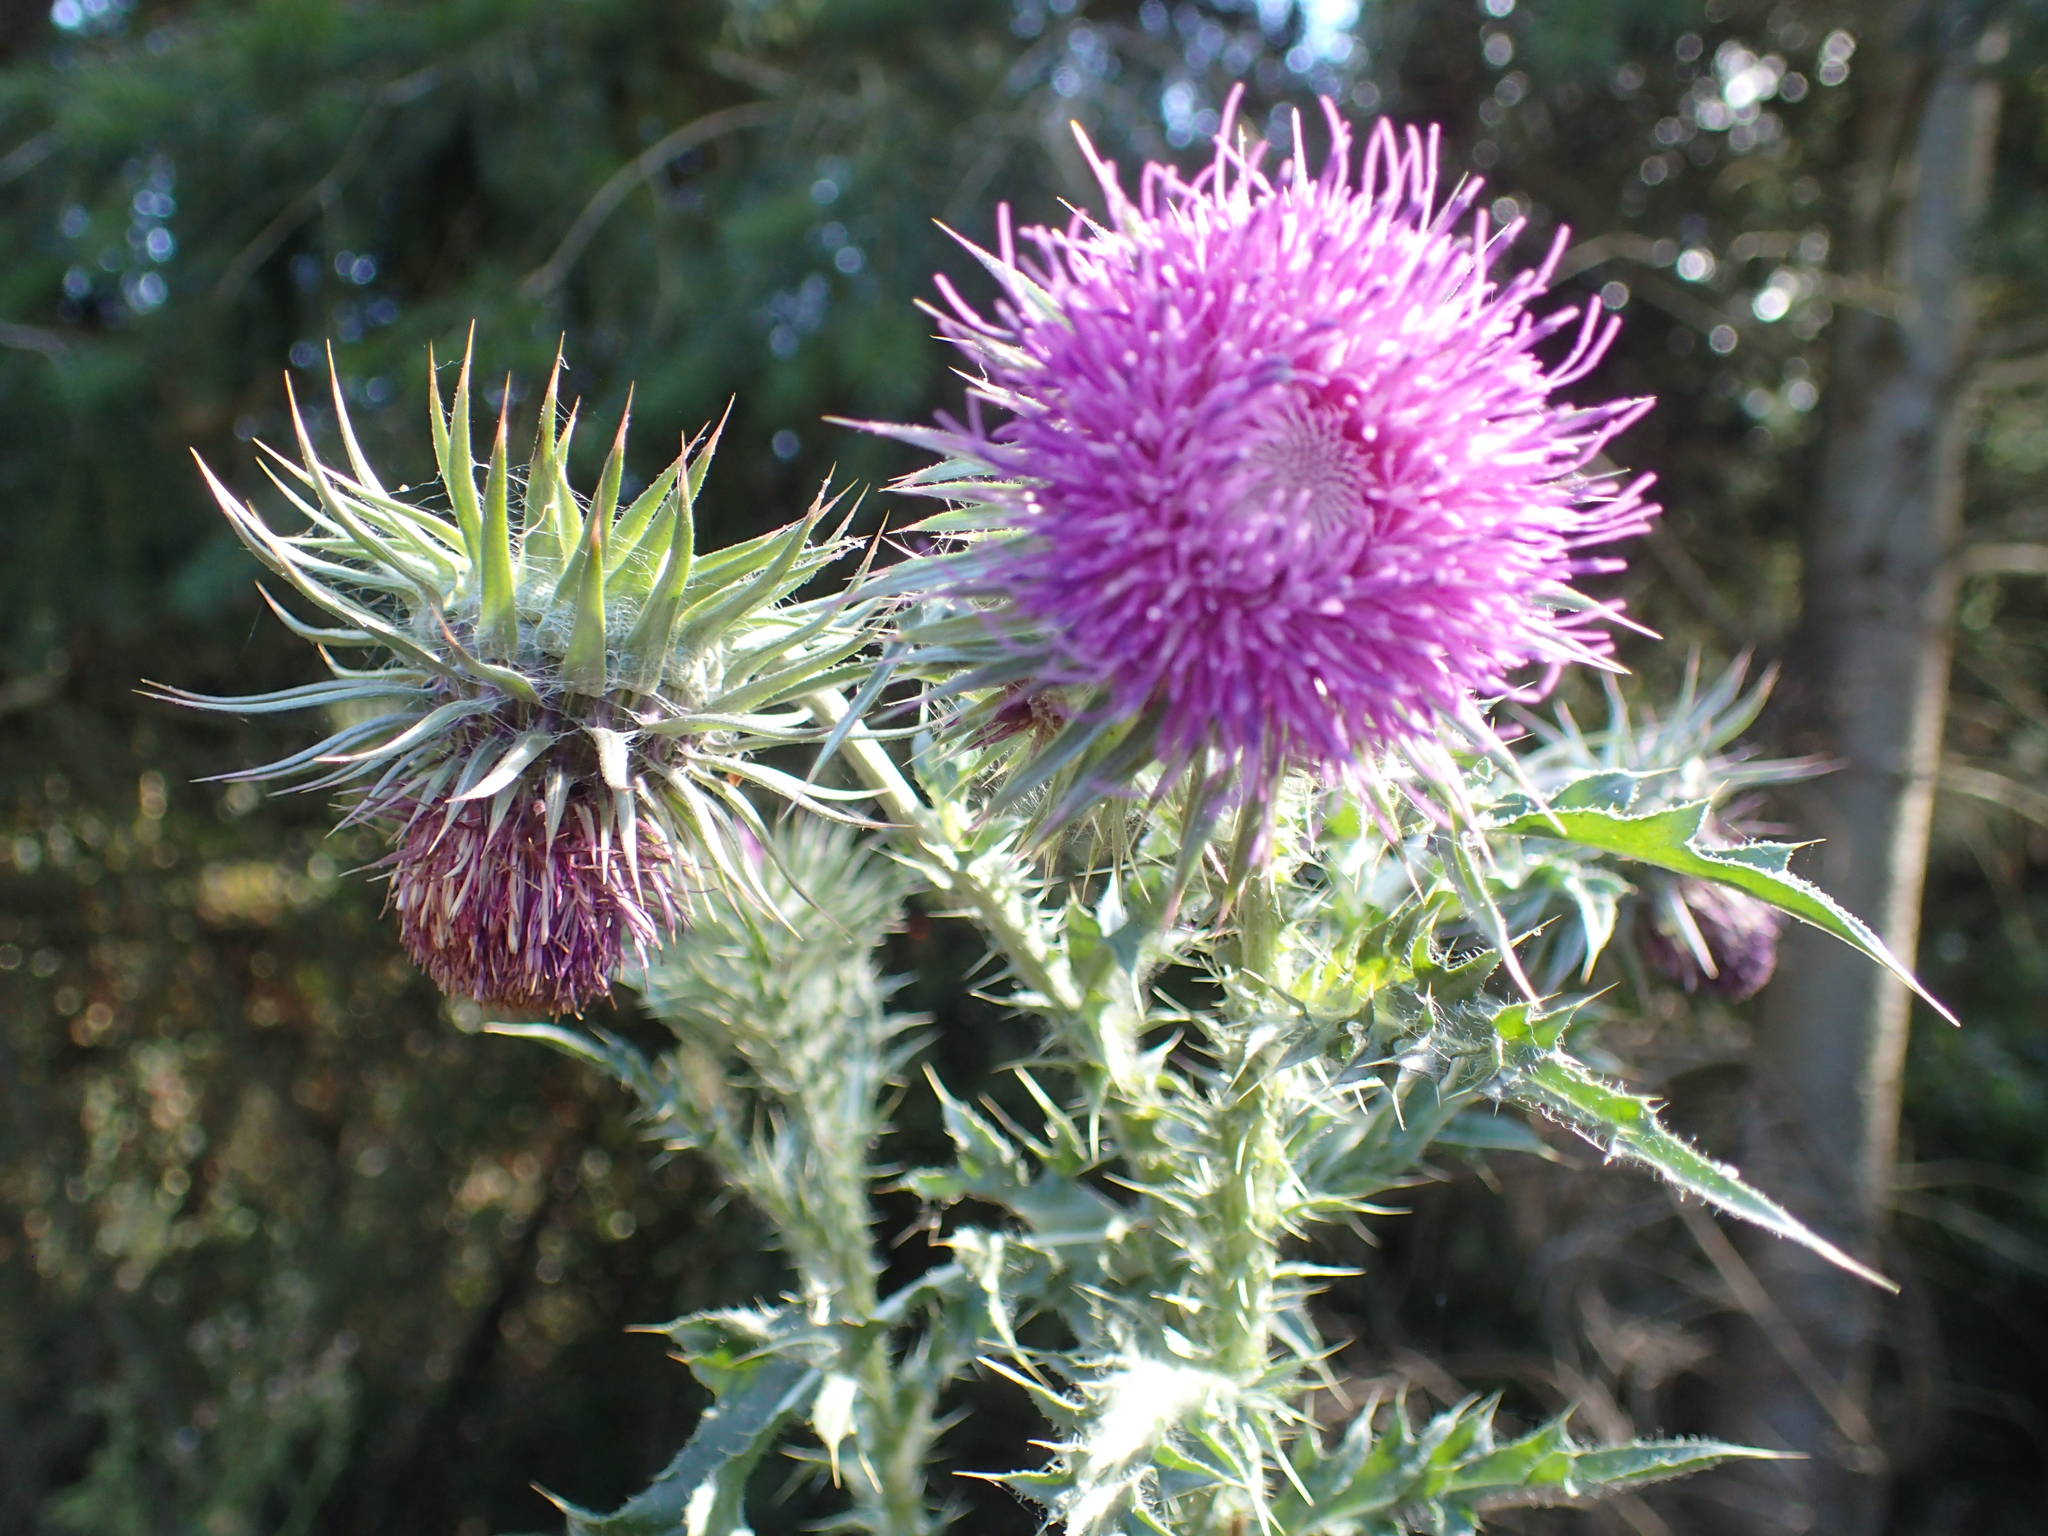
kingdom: Plantae
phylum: Tracheophyta
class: Magnoliopsida
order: Asterales
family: Asteraceae
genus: Carduus
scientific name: Carduus nutans
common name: Musk thistle
